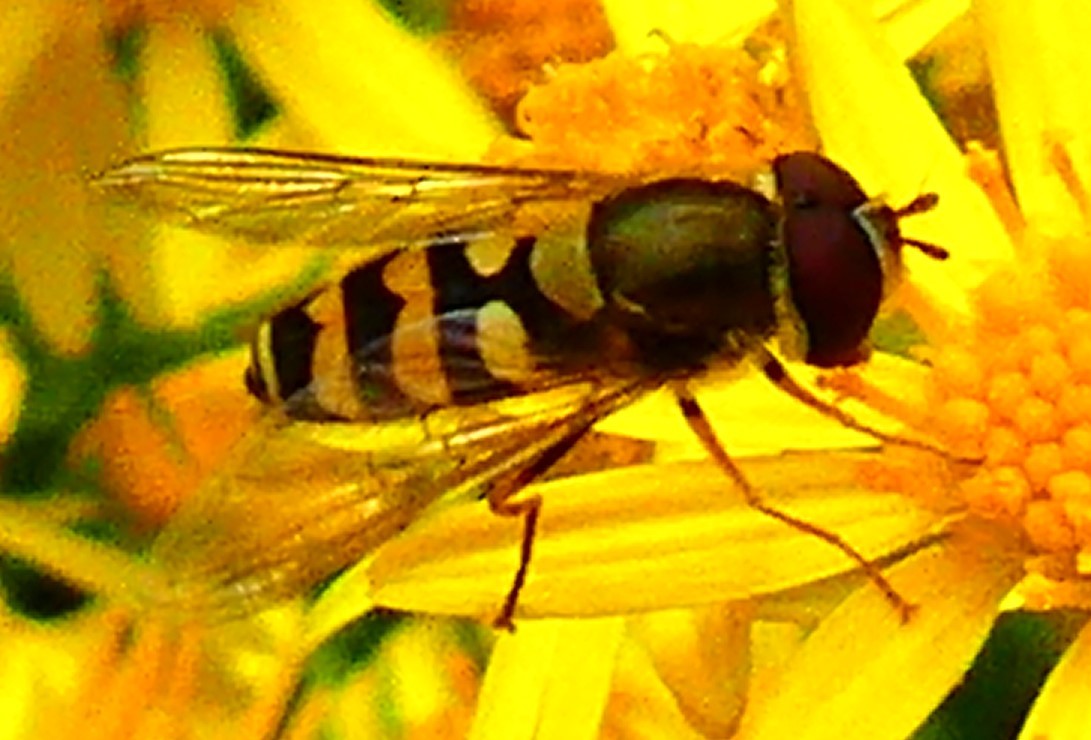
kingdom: Animalia
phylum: Arthropoda
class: Insecta
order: Diptera
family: Syrphidae
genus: Syrphus
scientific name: Syrphus
